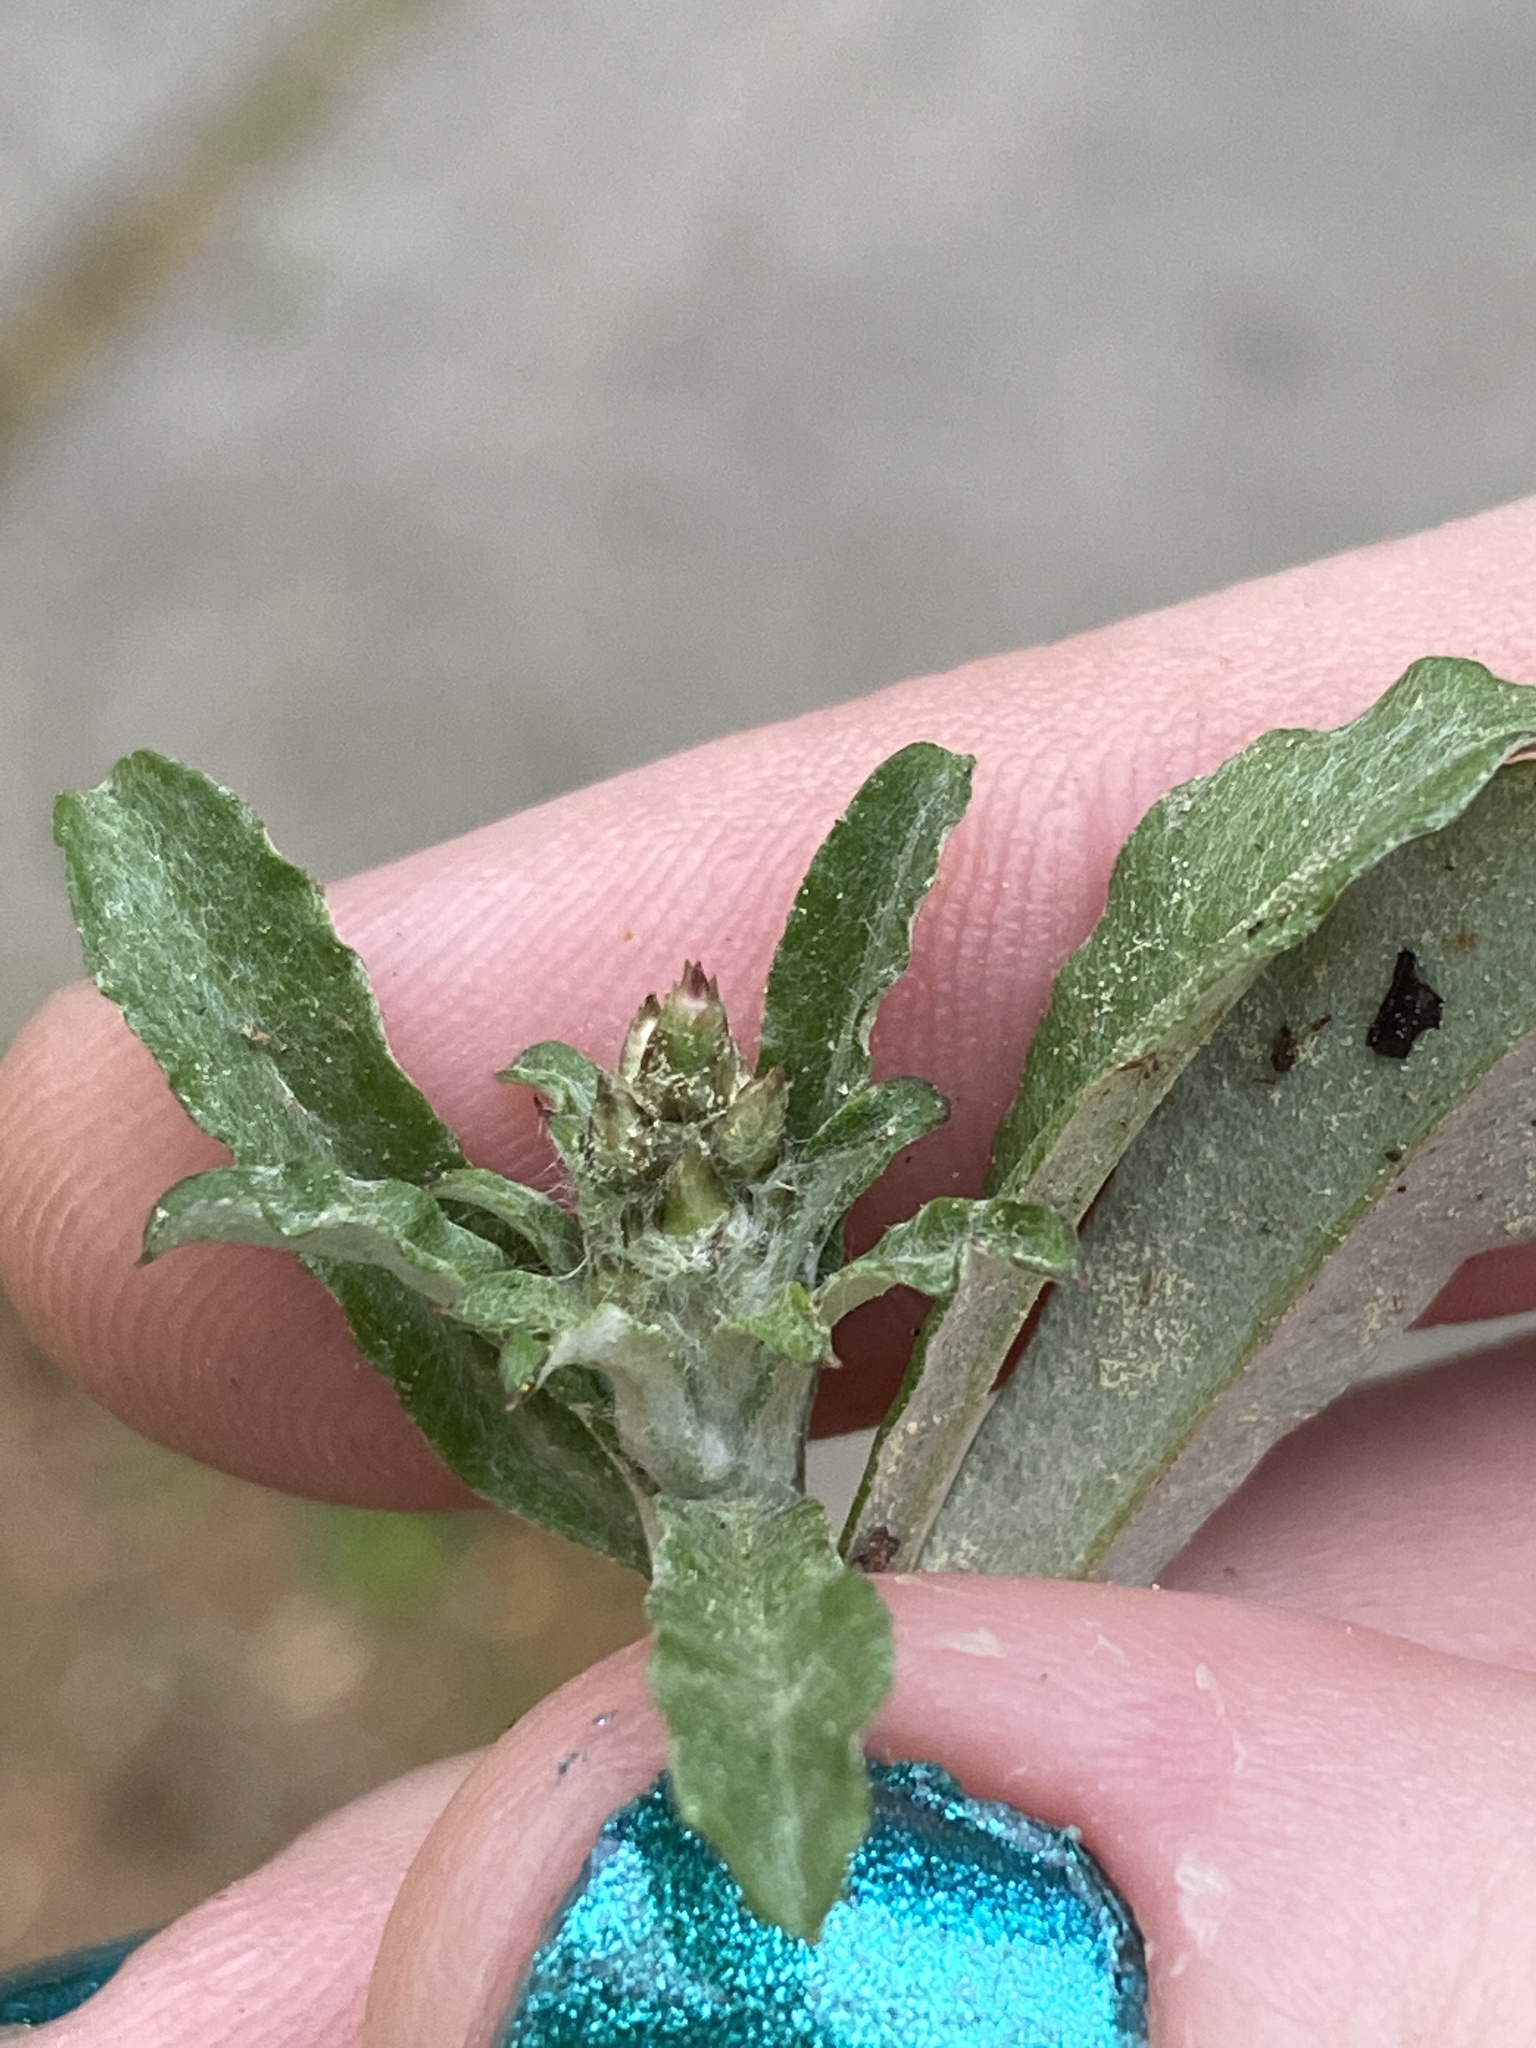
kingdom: Plantae
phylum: Tracheophyta
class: Magnoliopsida
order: Asterales
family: Asteraceae
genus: Gamochaeta
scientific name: Gamochaeta purpurea
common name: Purple cudweed
